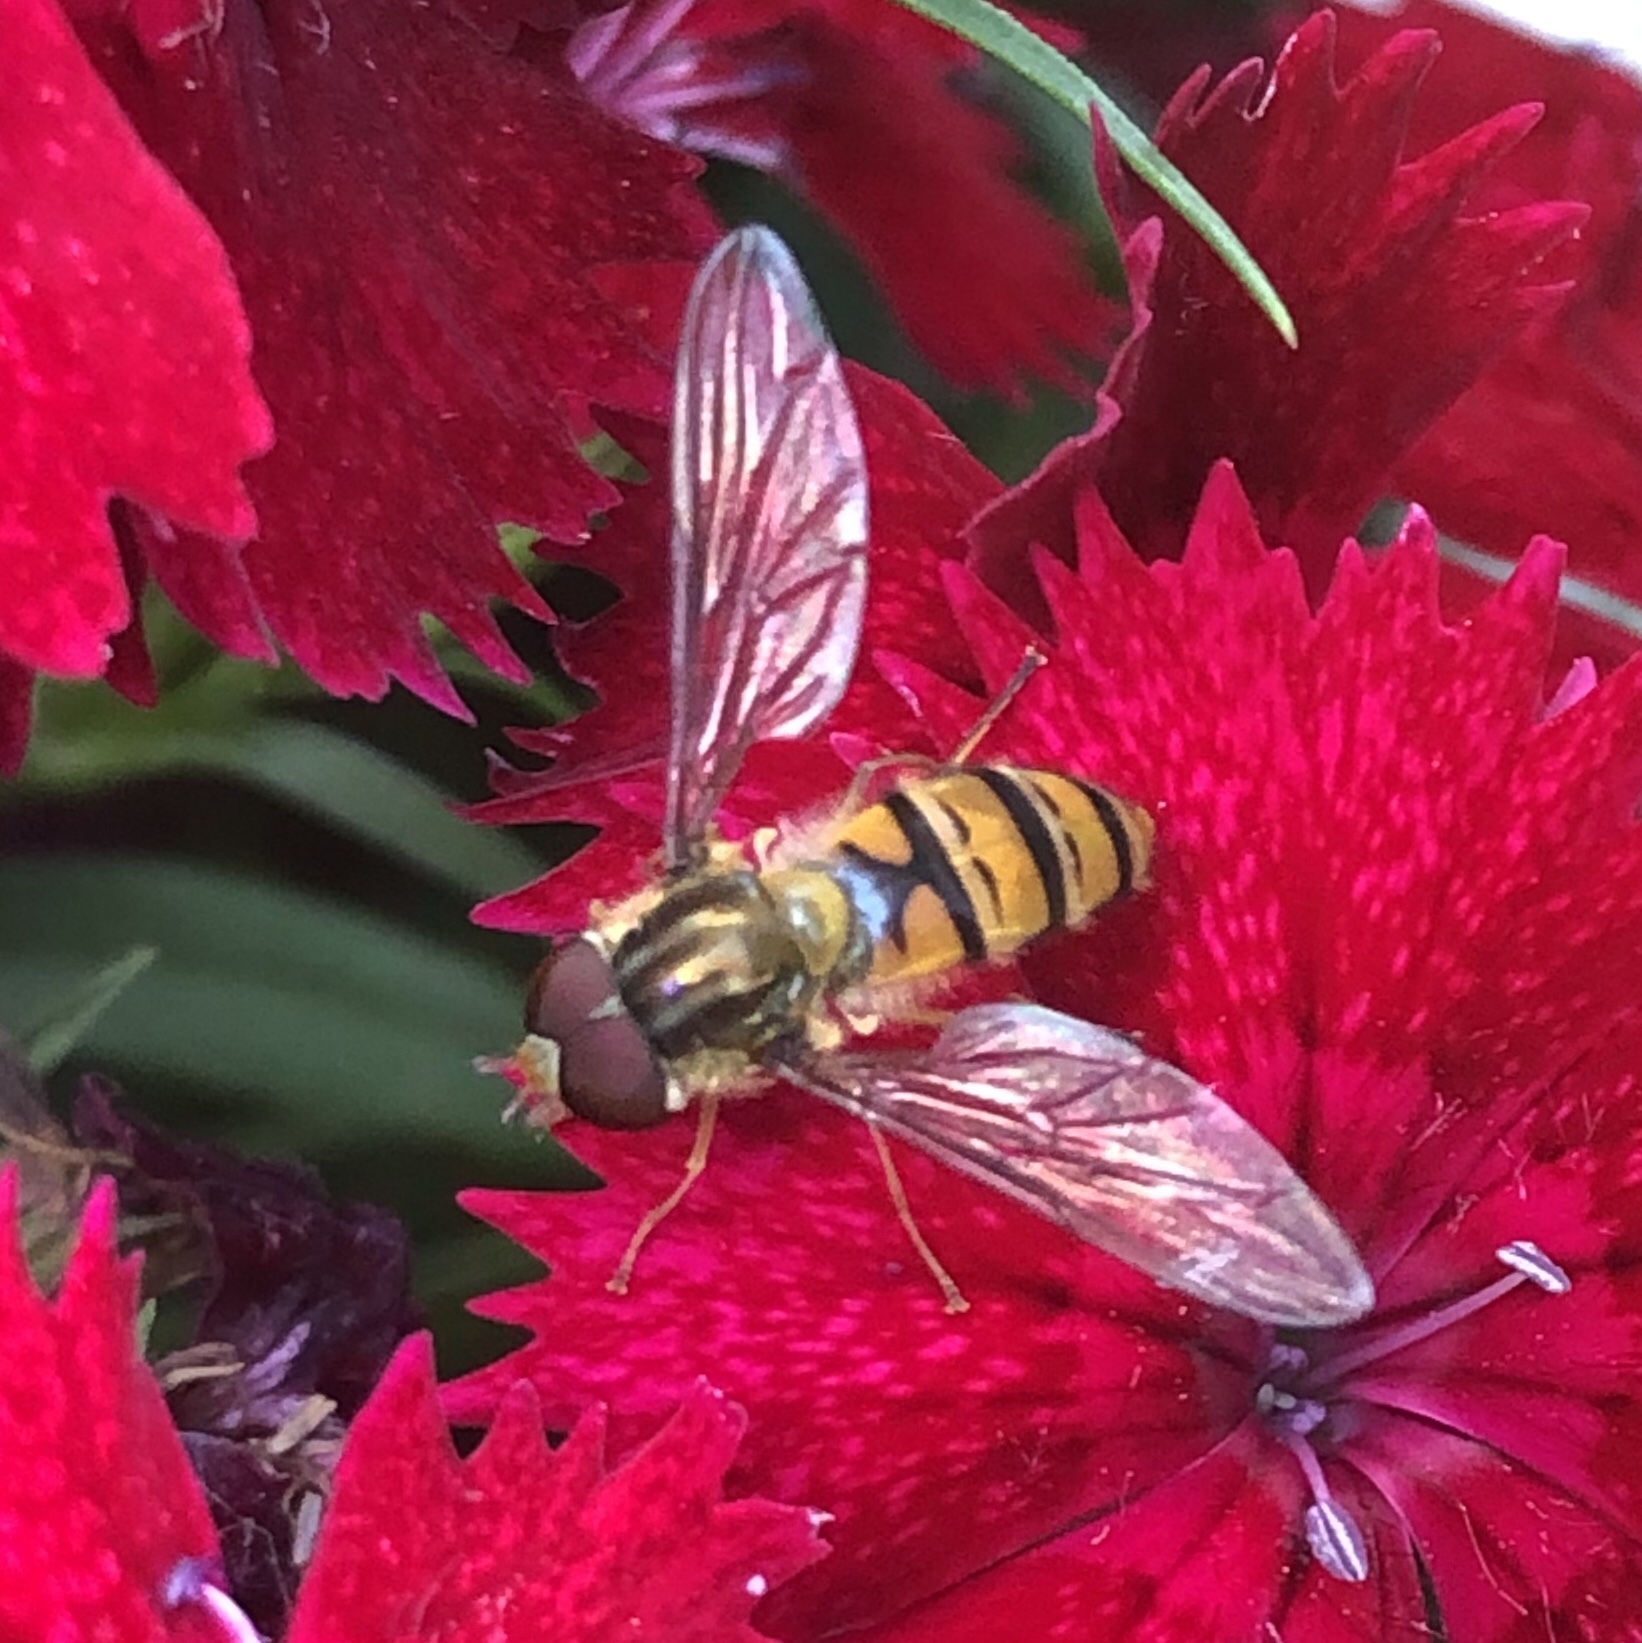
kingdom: Animalia
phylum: Arthropoda
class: Insecta
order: Diptera
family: Syrphidae
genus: Episyrphus
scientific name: Episyrphus balteatus
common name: Marmalade hoverfly
